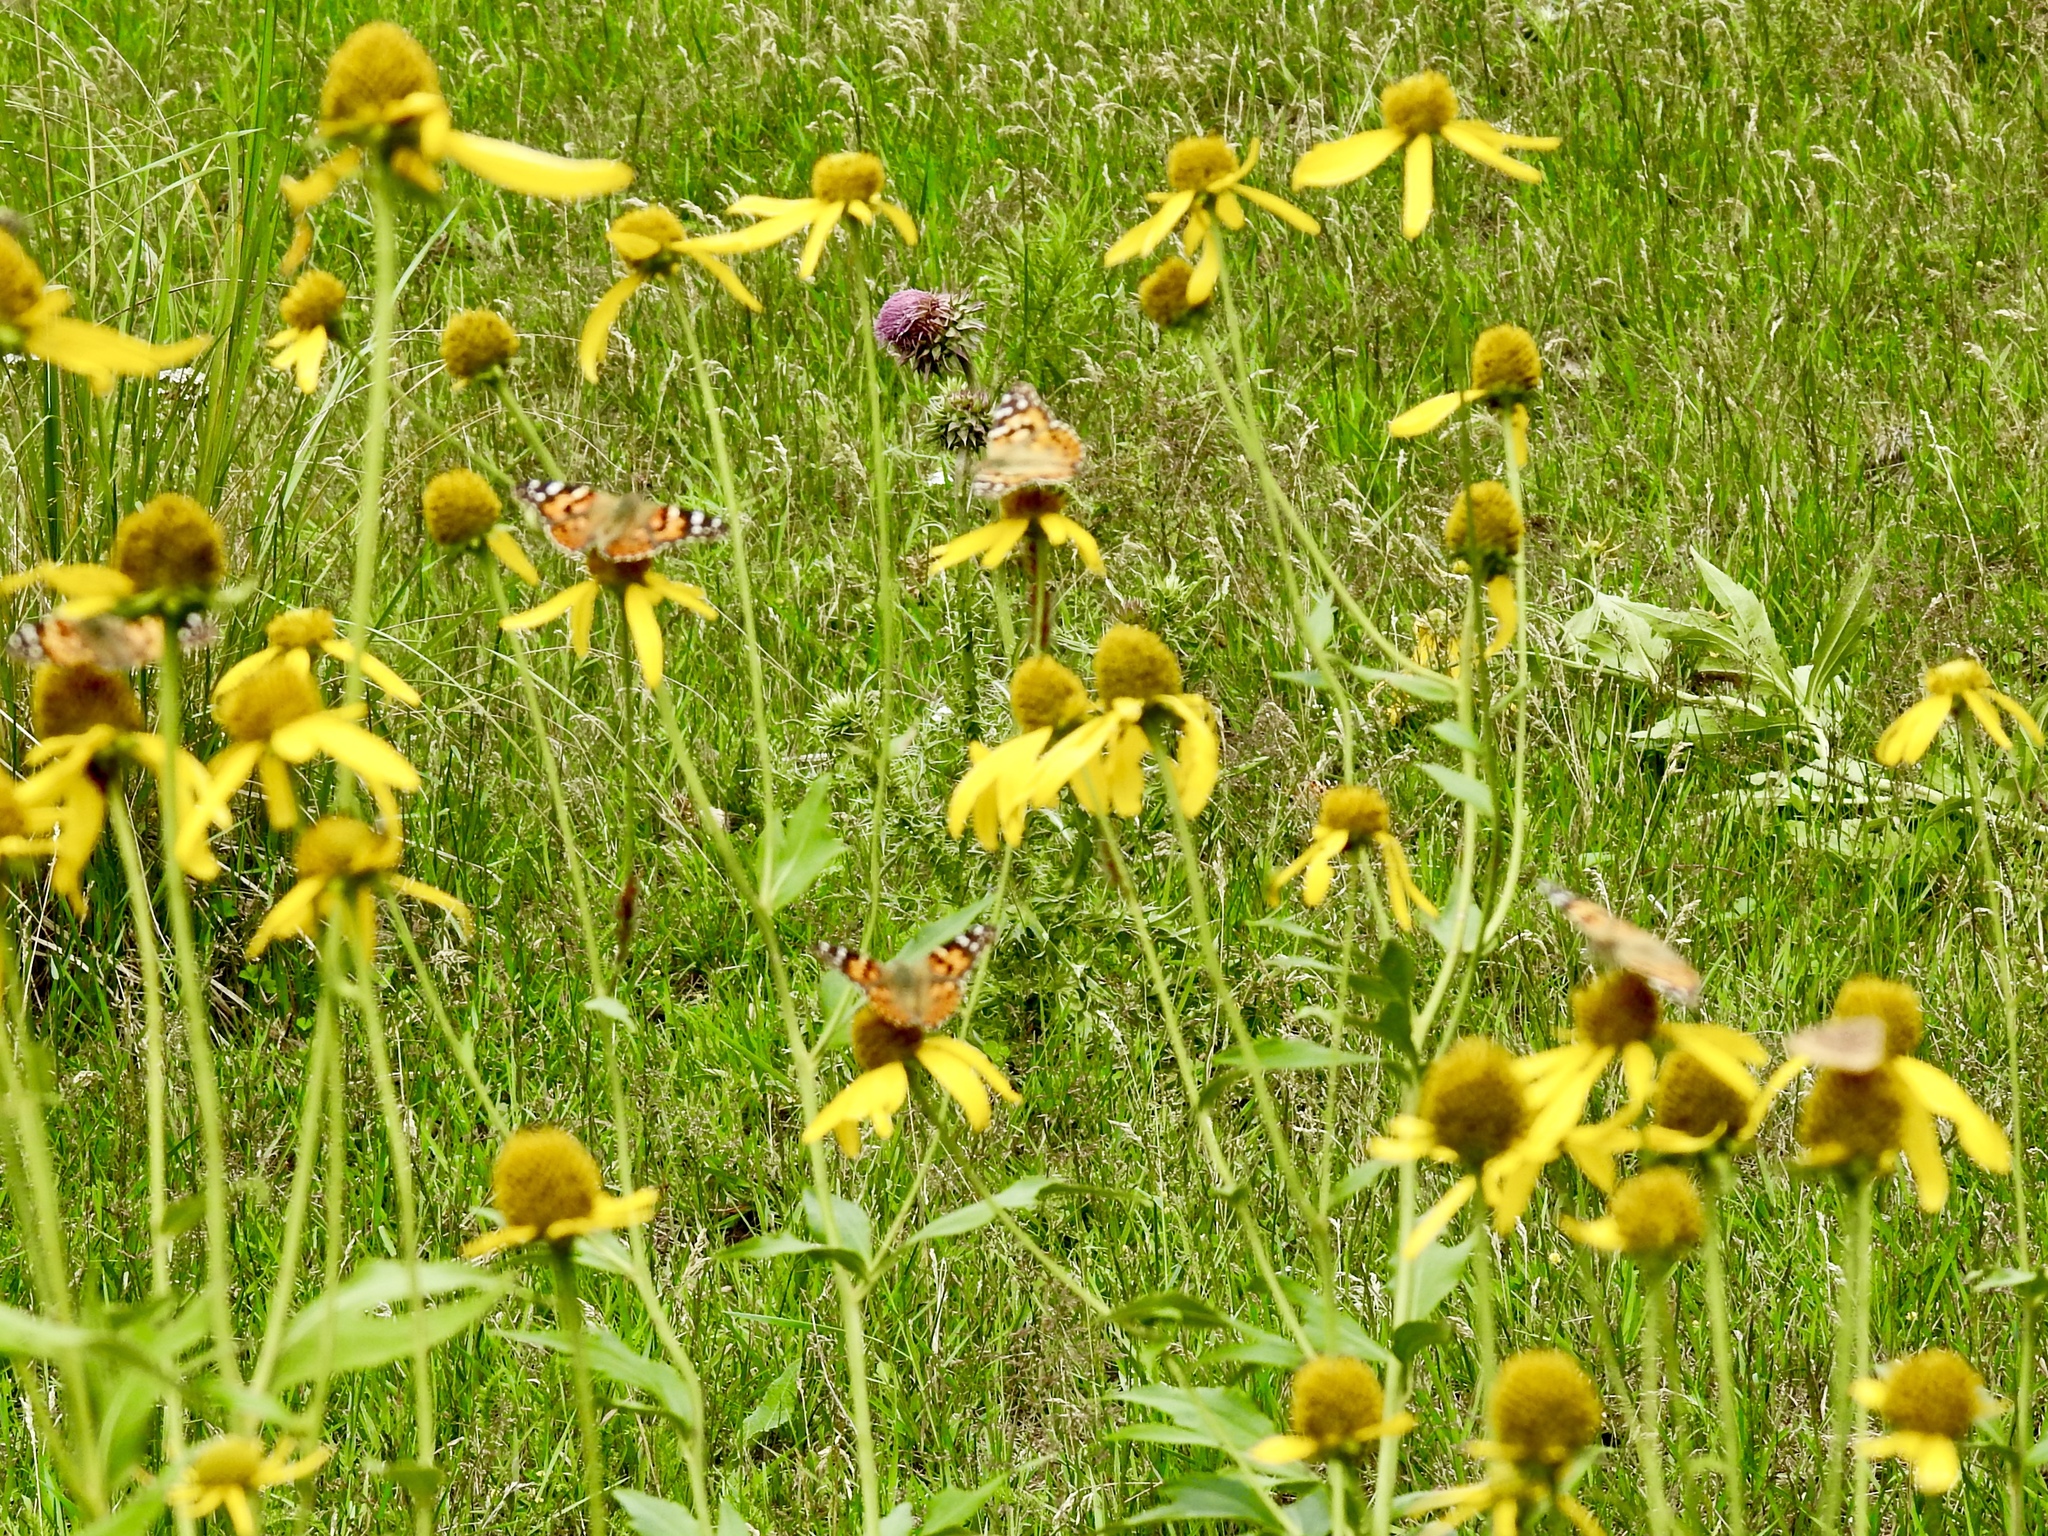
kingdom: Plantae
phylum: Tracheophyta
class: Magnoliopsida
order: Asterales
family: Asteraceae
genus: Rudbeckia
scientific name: Rudbeckia laciniata
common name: Coneflower
